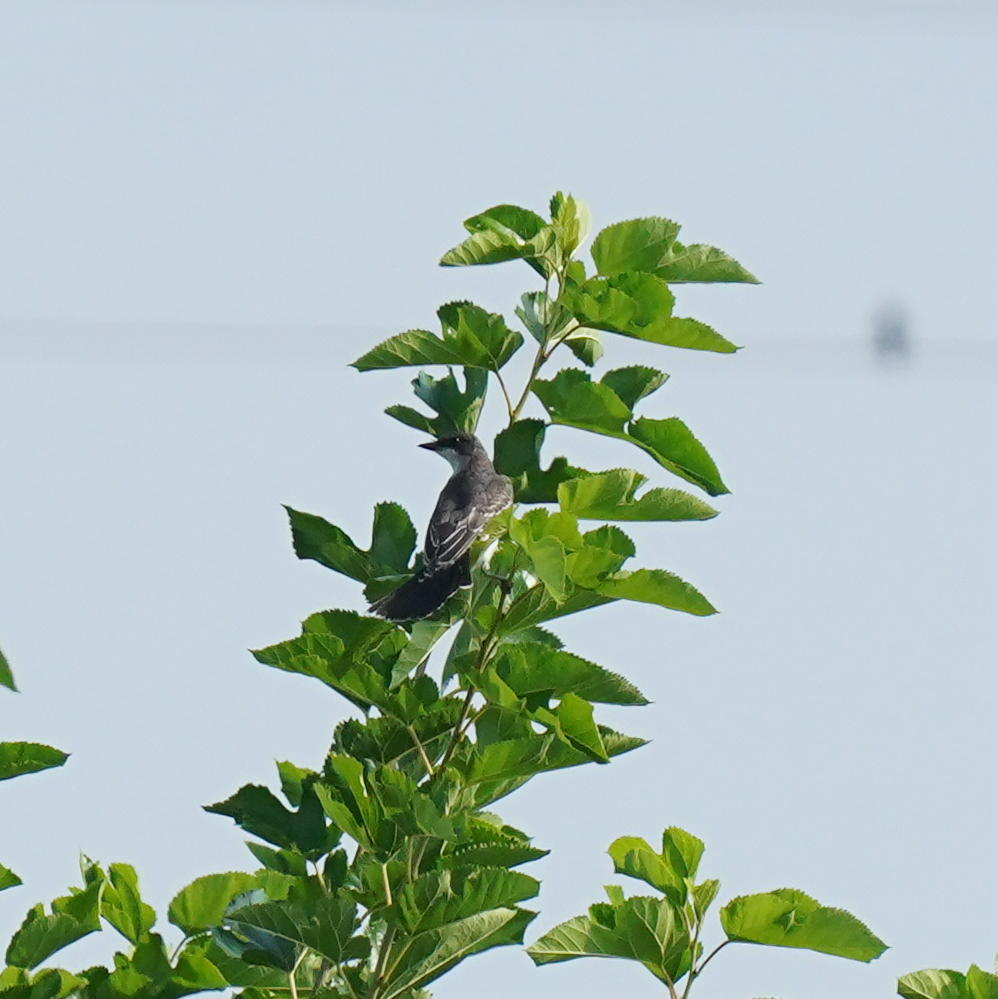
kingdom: Animalia
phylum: Chordata
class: Aves
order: Passeriformes
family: Tyrannidae
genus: Tyrannus
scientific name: Tyrannus tyrannus
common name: Eastern kingbird
